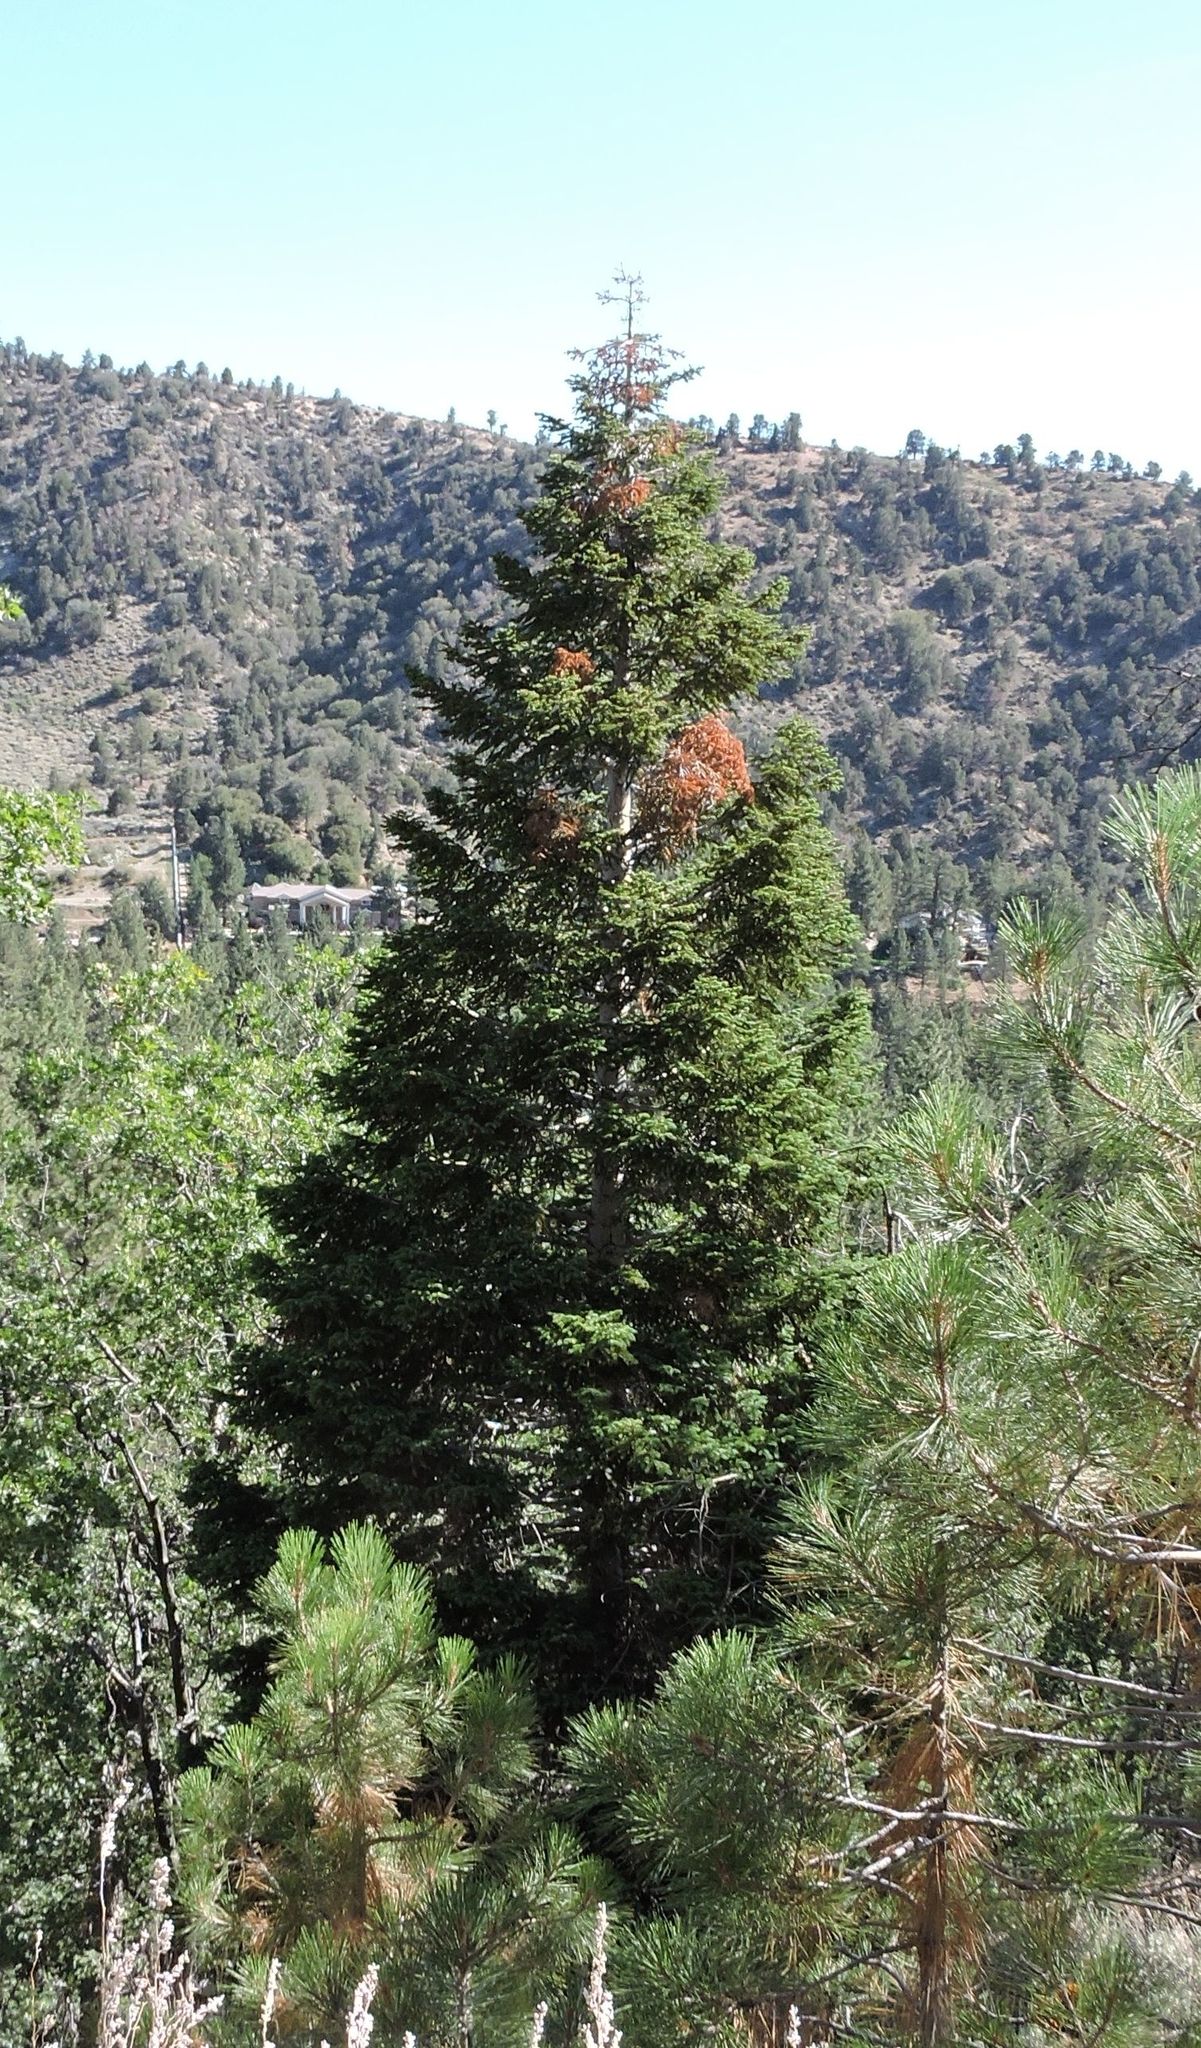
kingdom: Plantae
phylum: Tracheophyta
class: Pinopsida
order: Pinales
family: Pinaceae
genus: Abies
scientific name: Abies concolor
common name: Colorado fir
